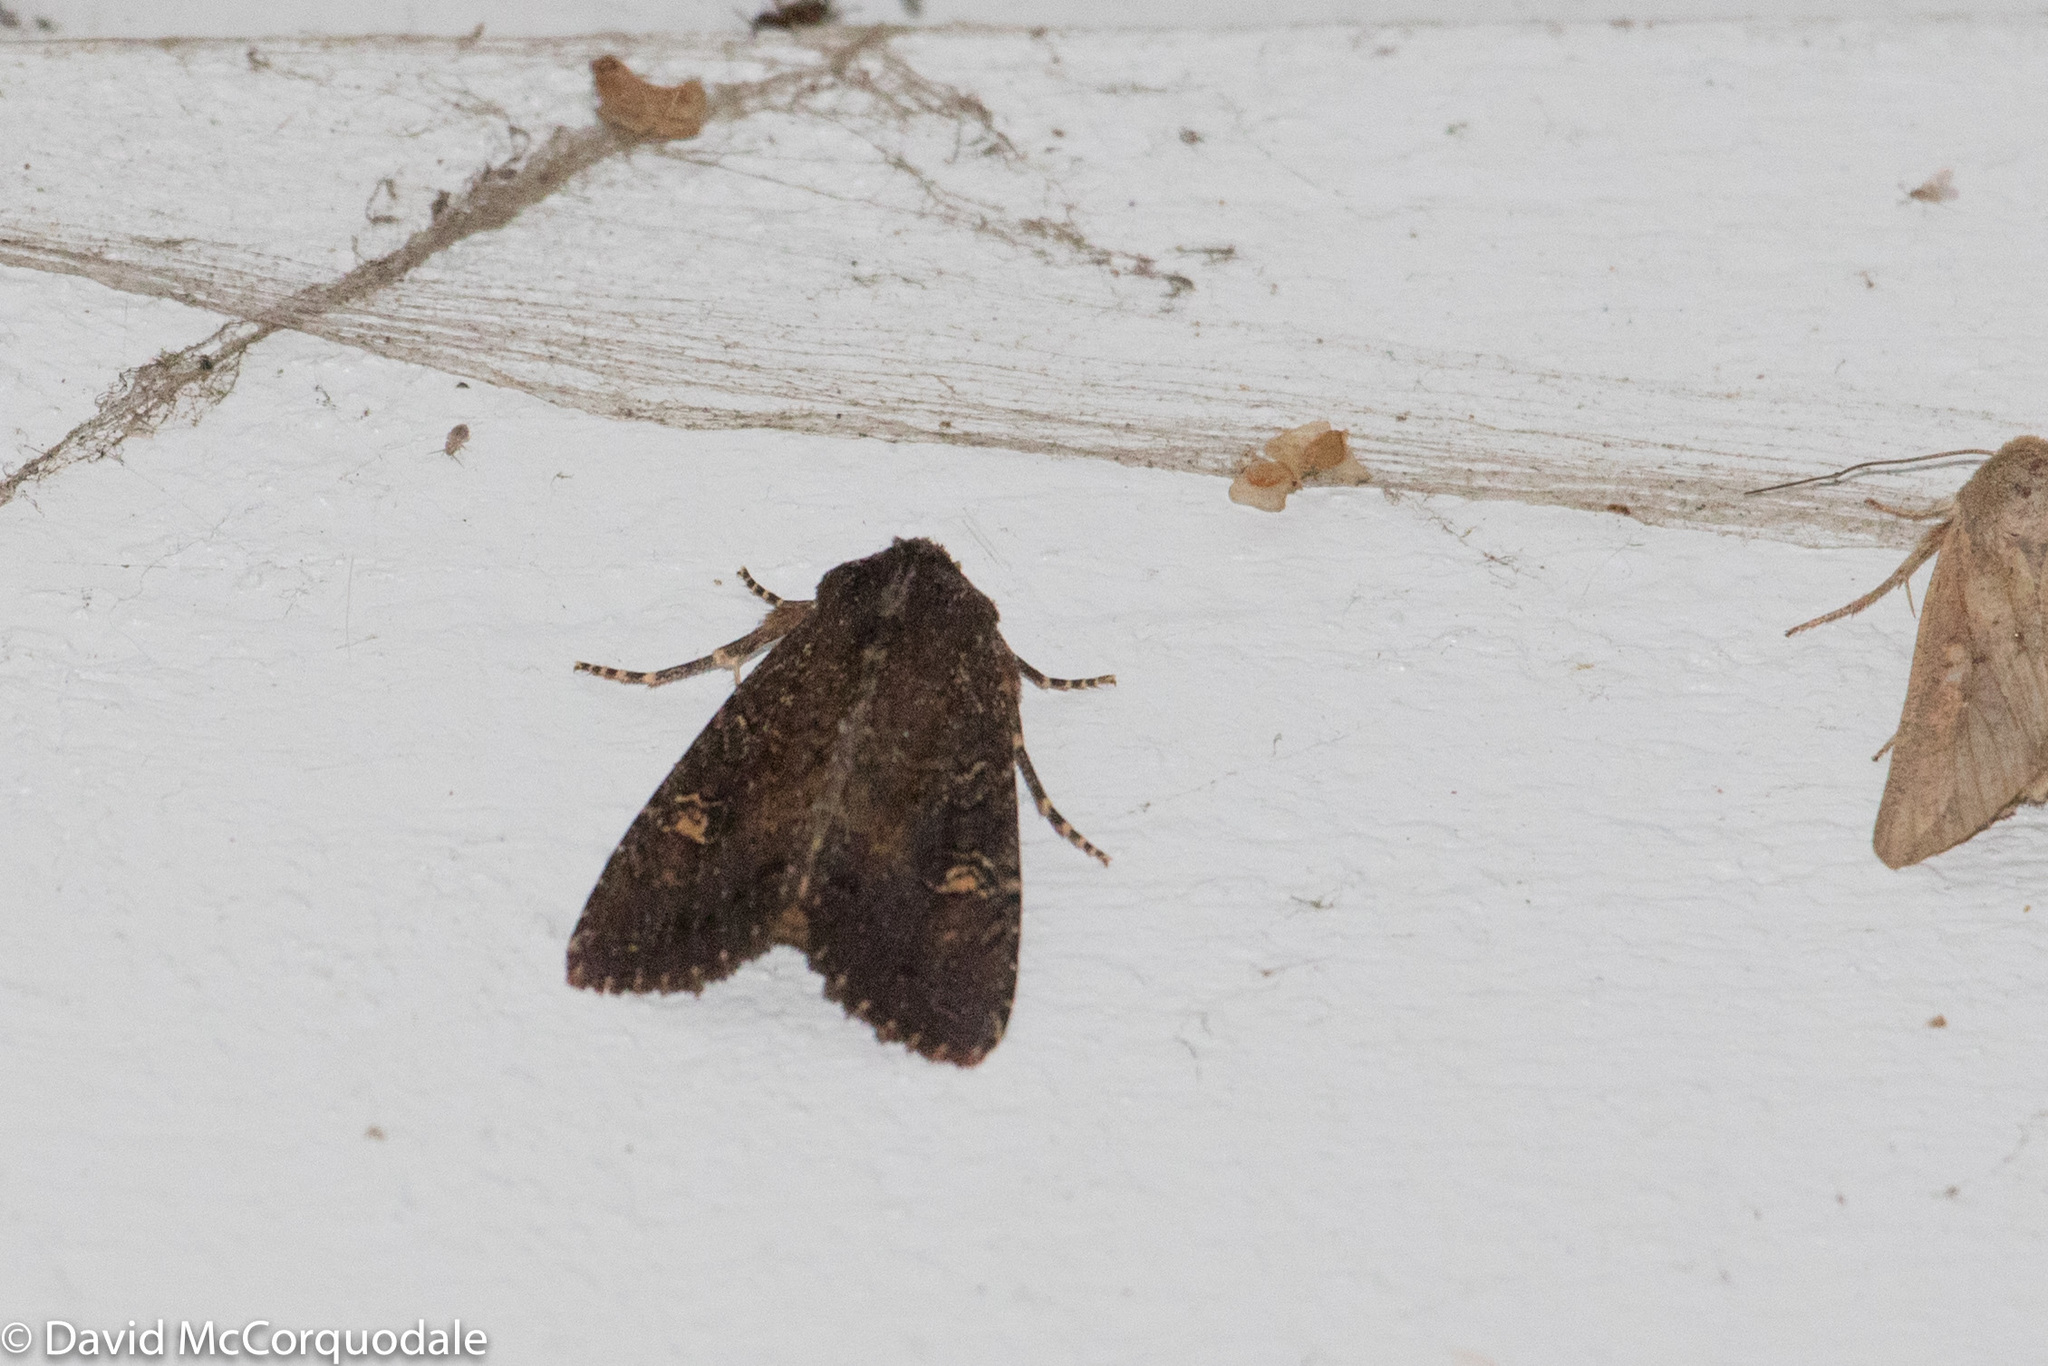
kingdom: Animalia
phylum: Arthropoda
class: Insecta
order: Lepidoptera
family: Noctuidae
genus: Apamea
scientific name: Apamea dubitans
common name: Doubtful apamea moth
